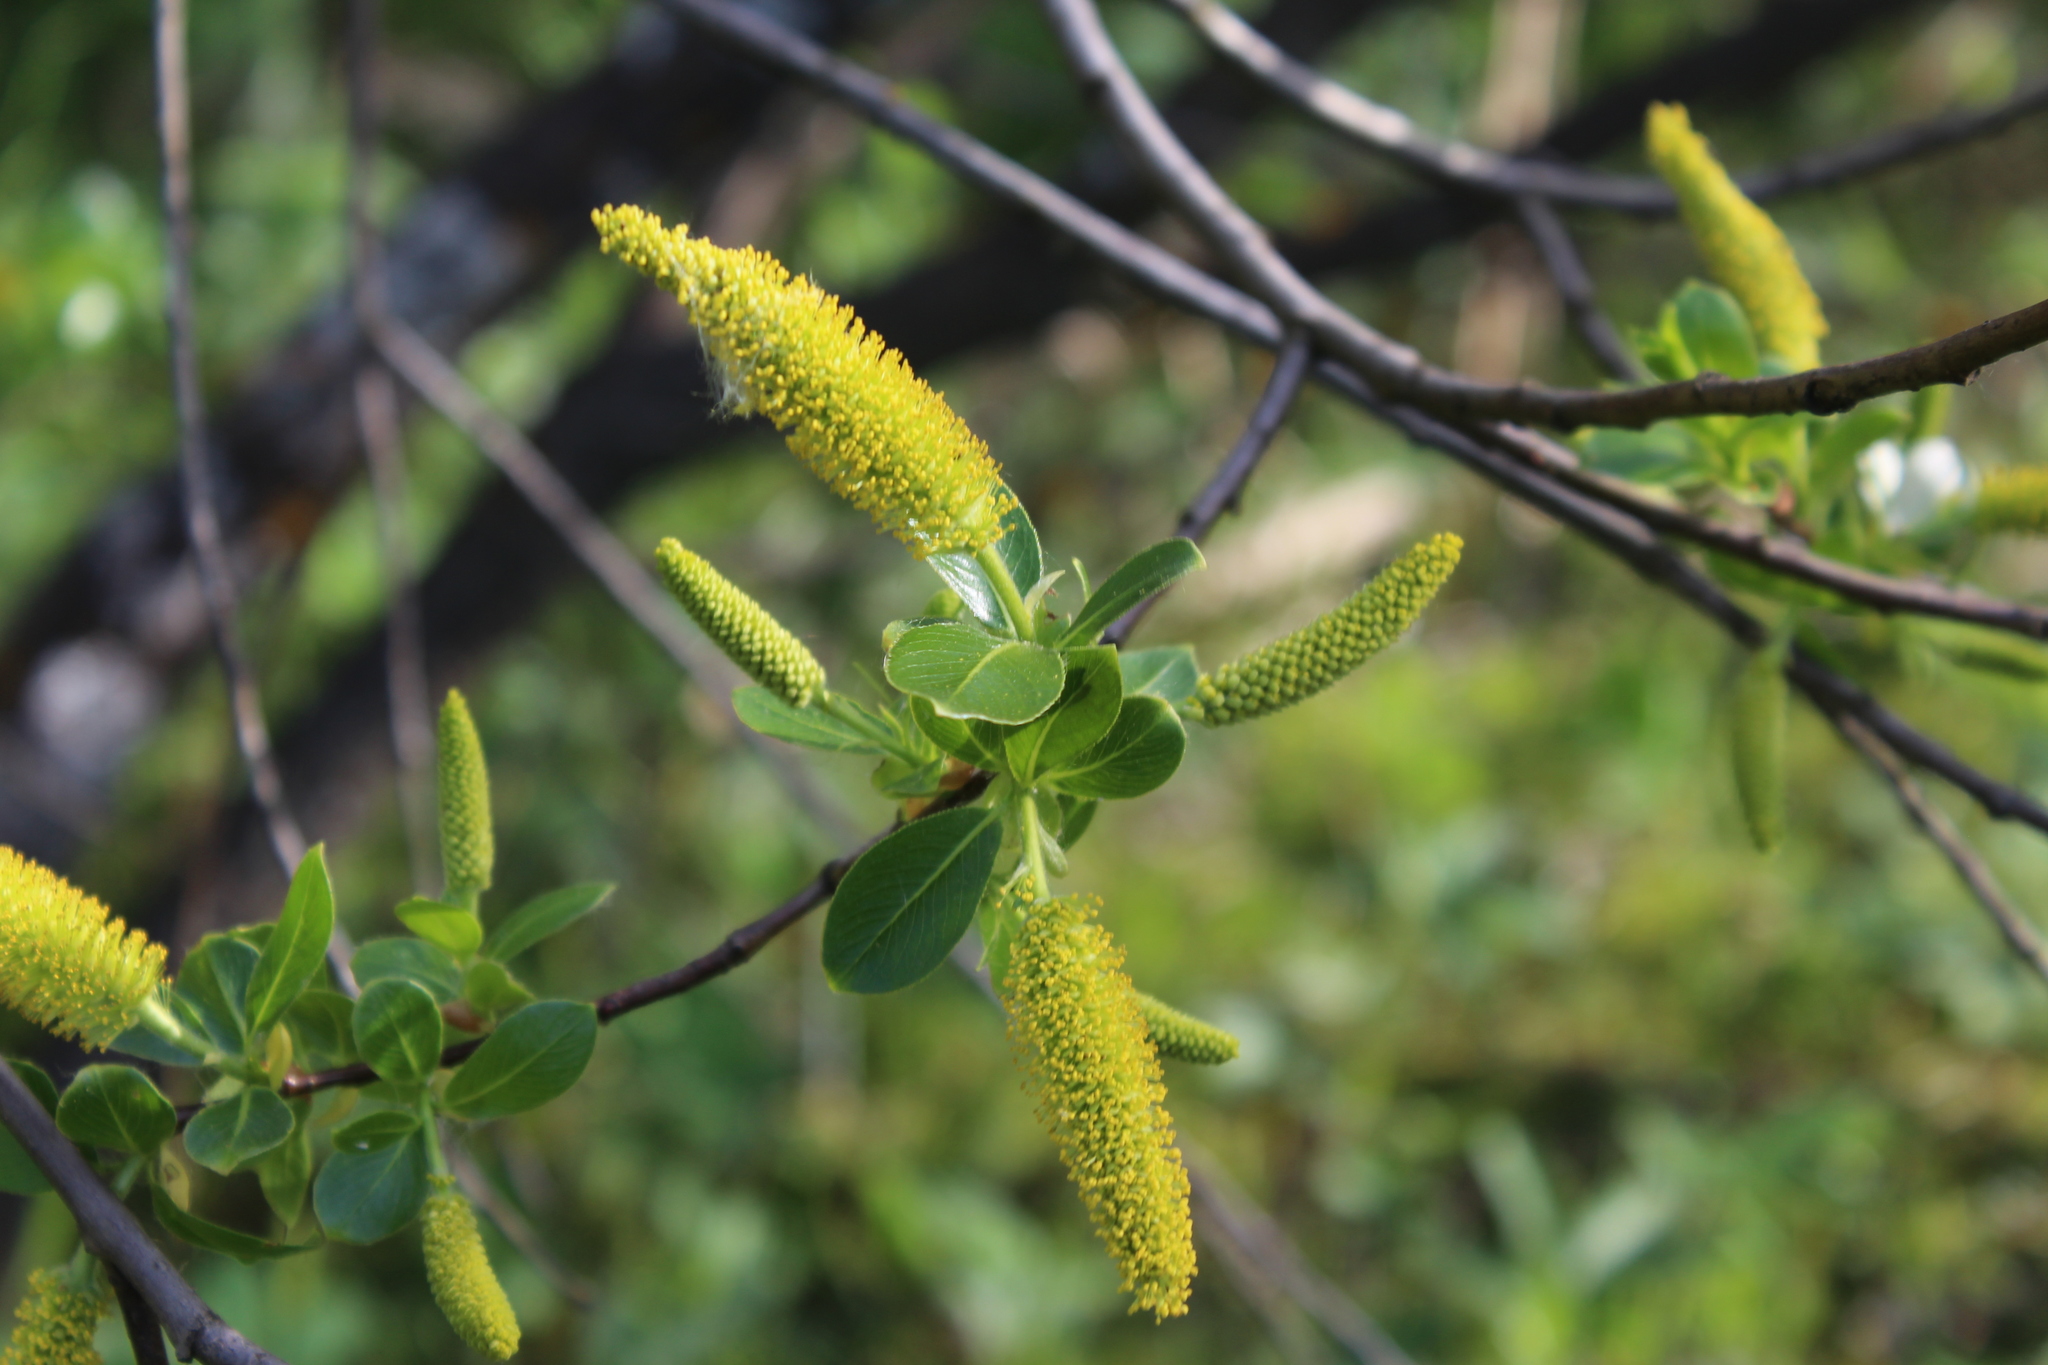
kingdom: Plantae
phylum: Tracheophyta
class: Magnoliopsida
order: Malpighiales
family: Salicaceae
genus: Salix
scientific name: Salix pentandra
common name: Bay willow
